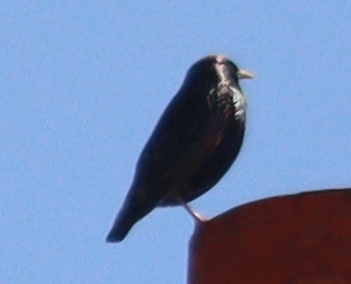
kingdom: Animalia
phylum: Chordata
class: Aves
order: Passeriformes
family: Sturnidae
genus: Sturnus
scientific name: Sturnus vulgaris
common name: Common starling
